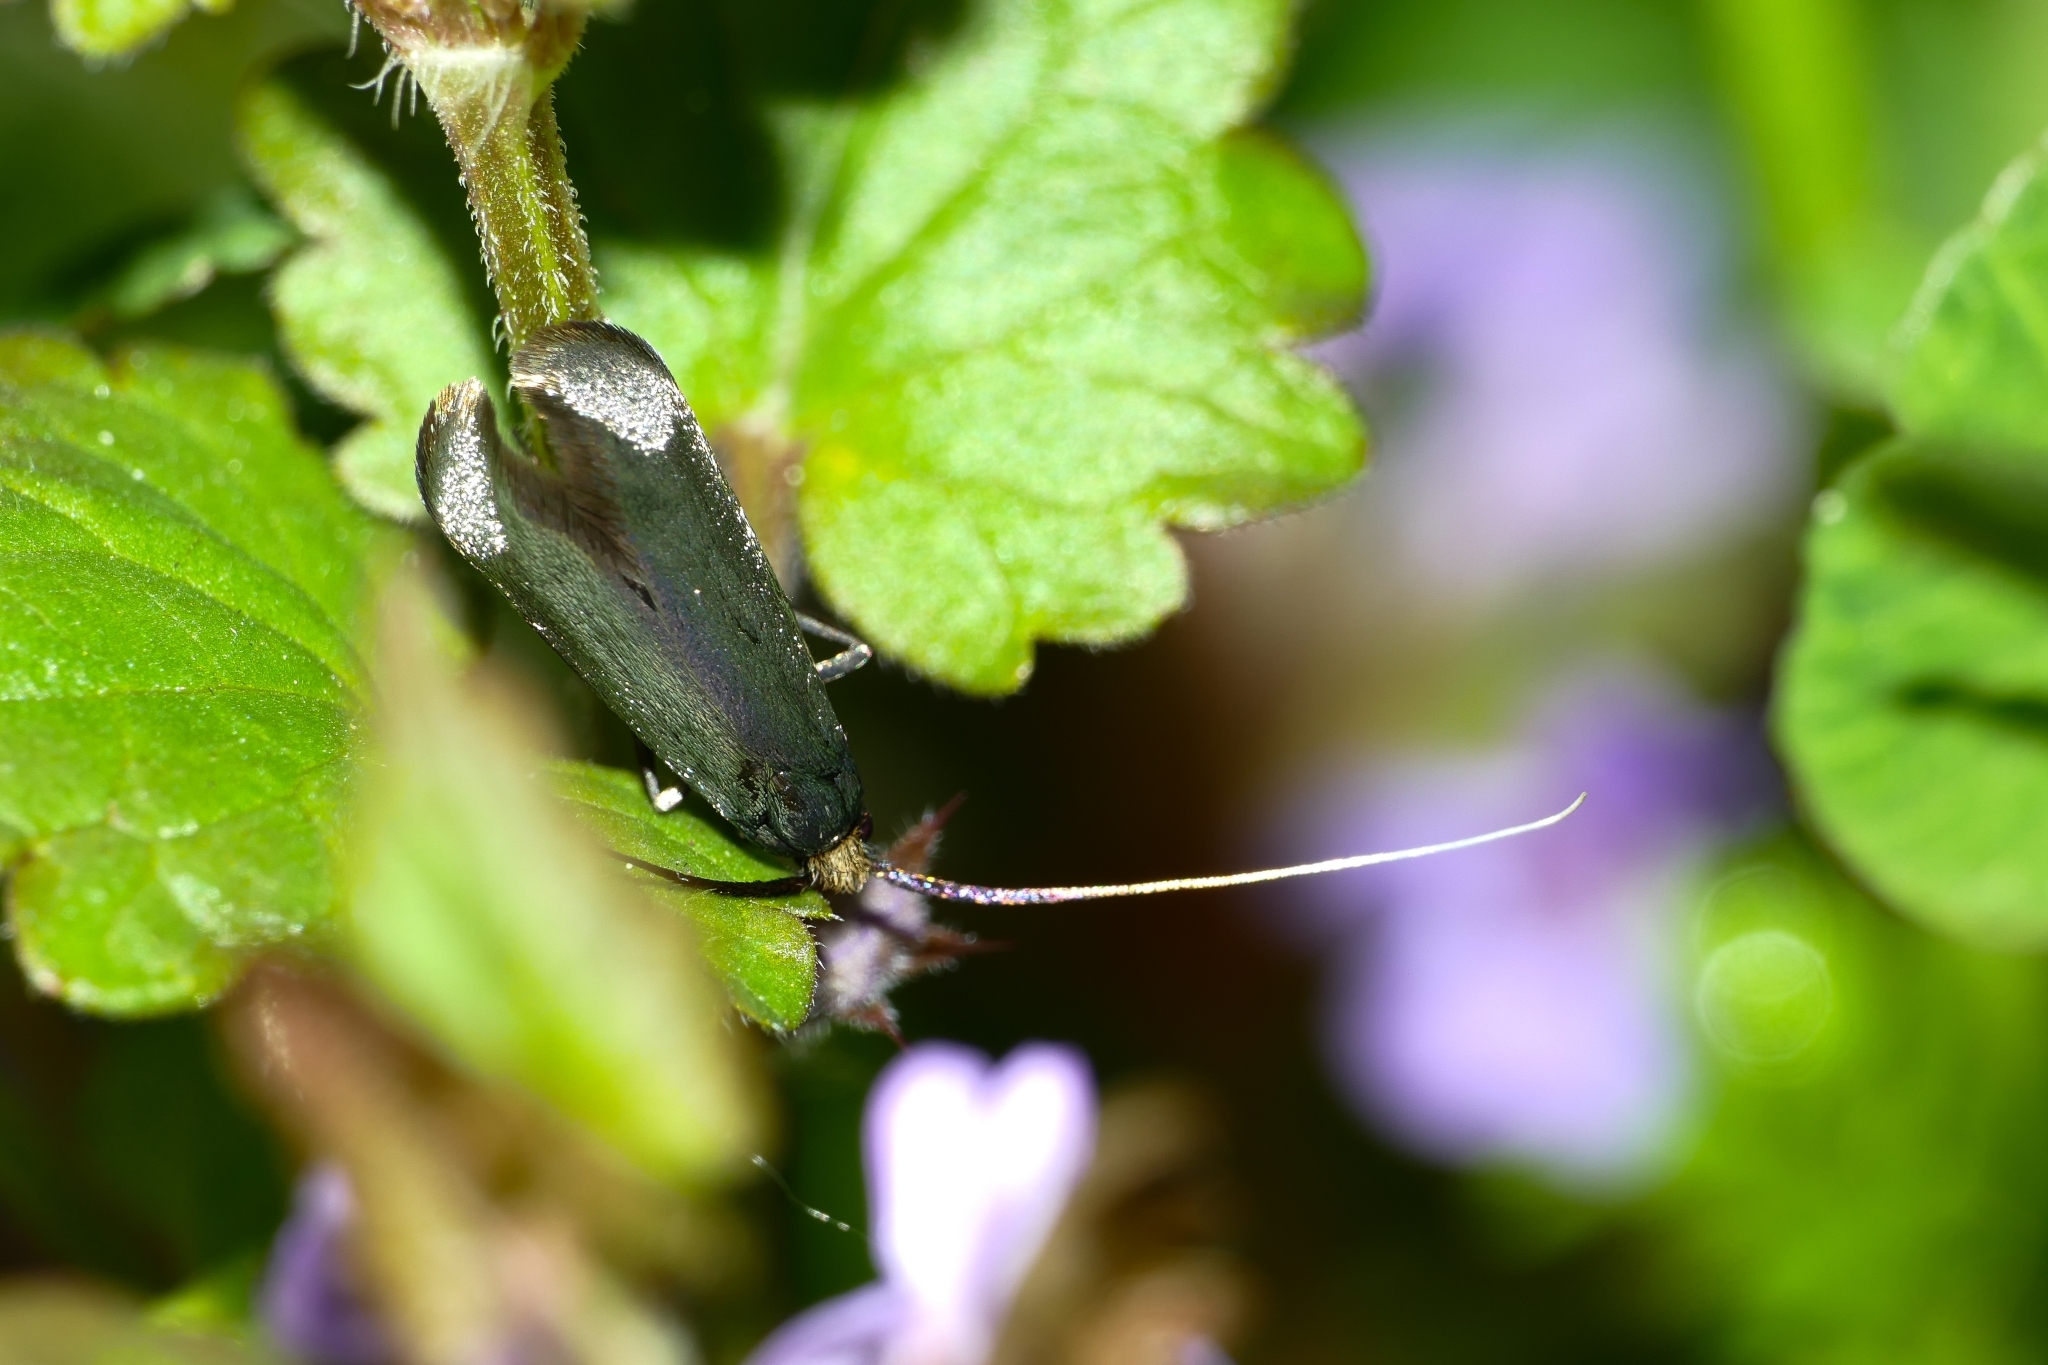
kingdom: Animalia
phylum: Arthropoda
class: Insecta
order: Lepidoptera
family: Adelidae
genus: Adela
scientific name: Adela viridella
